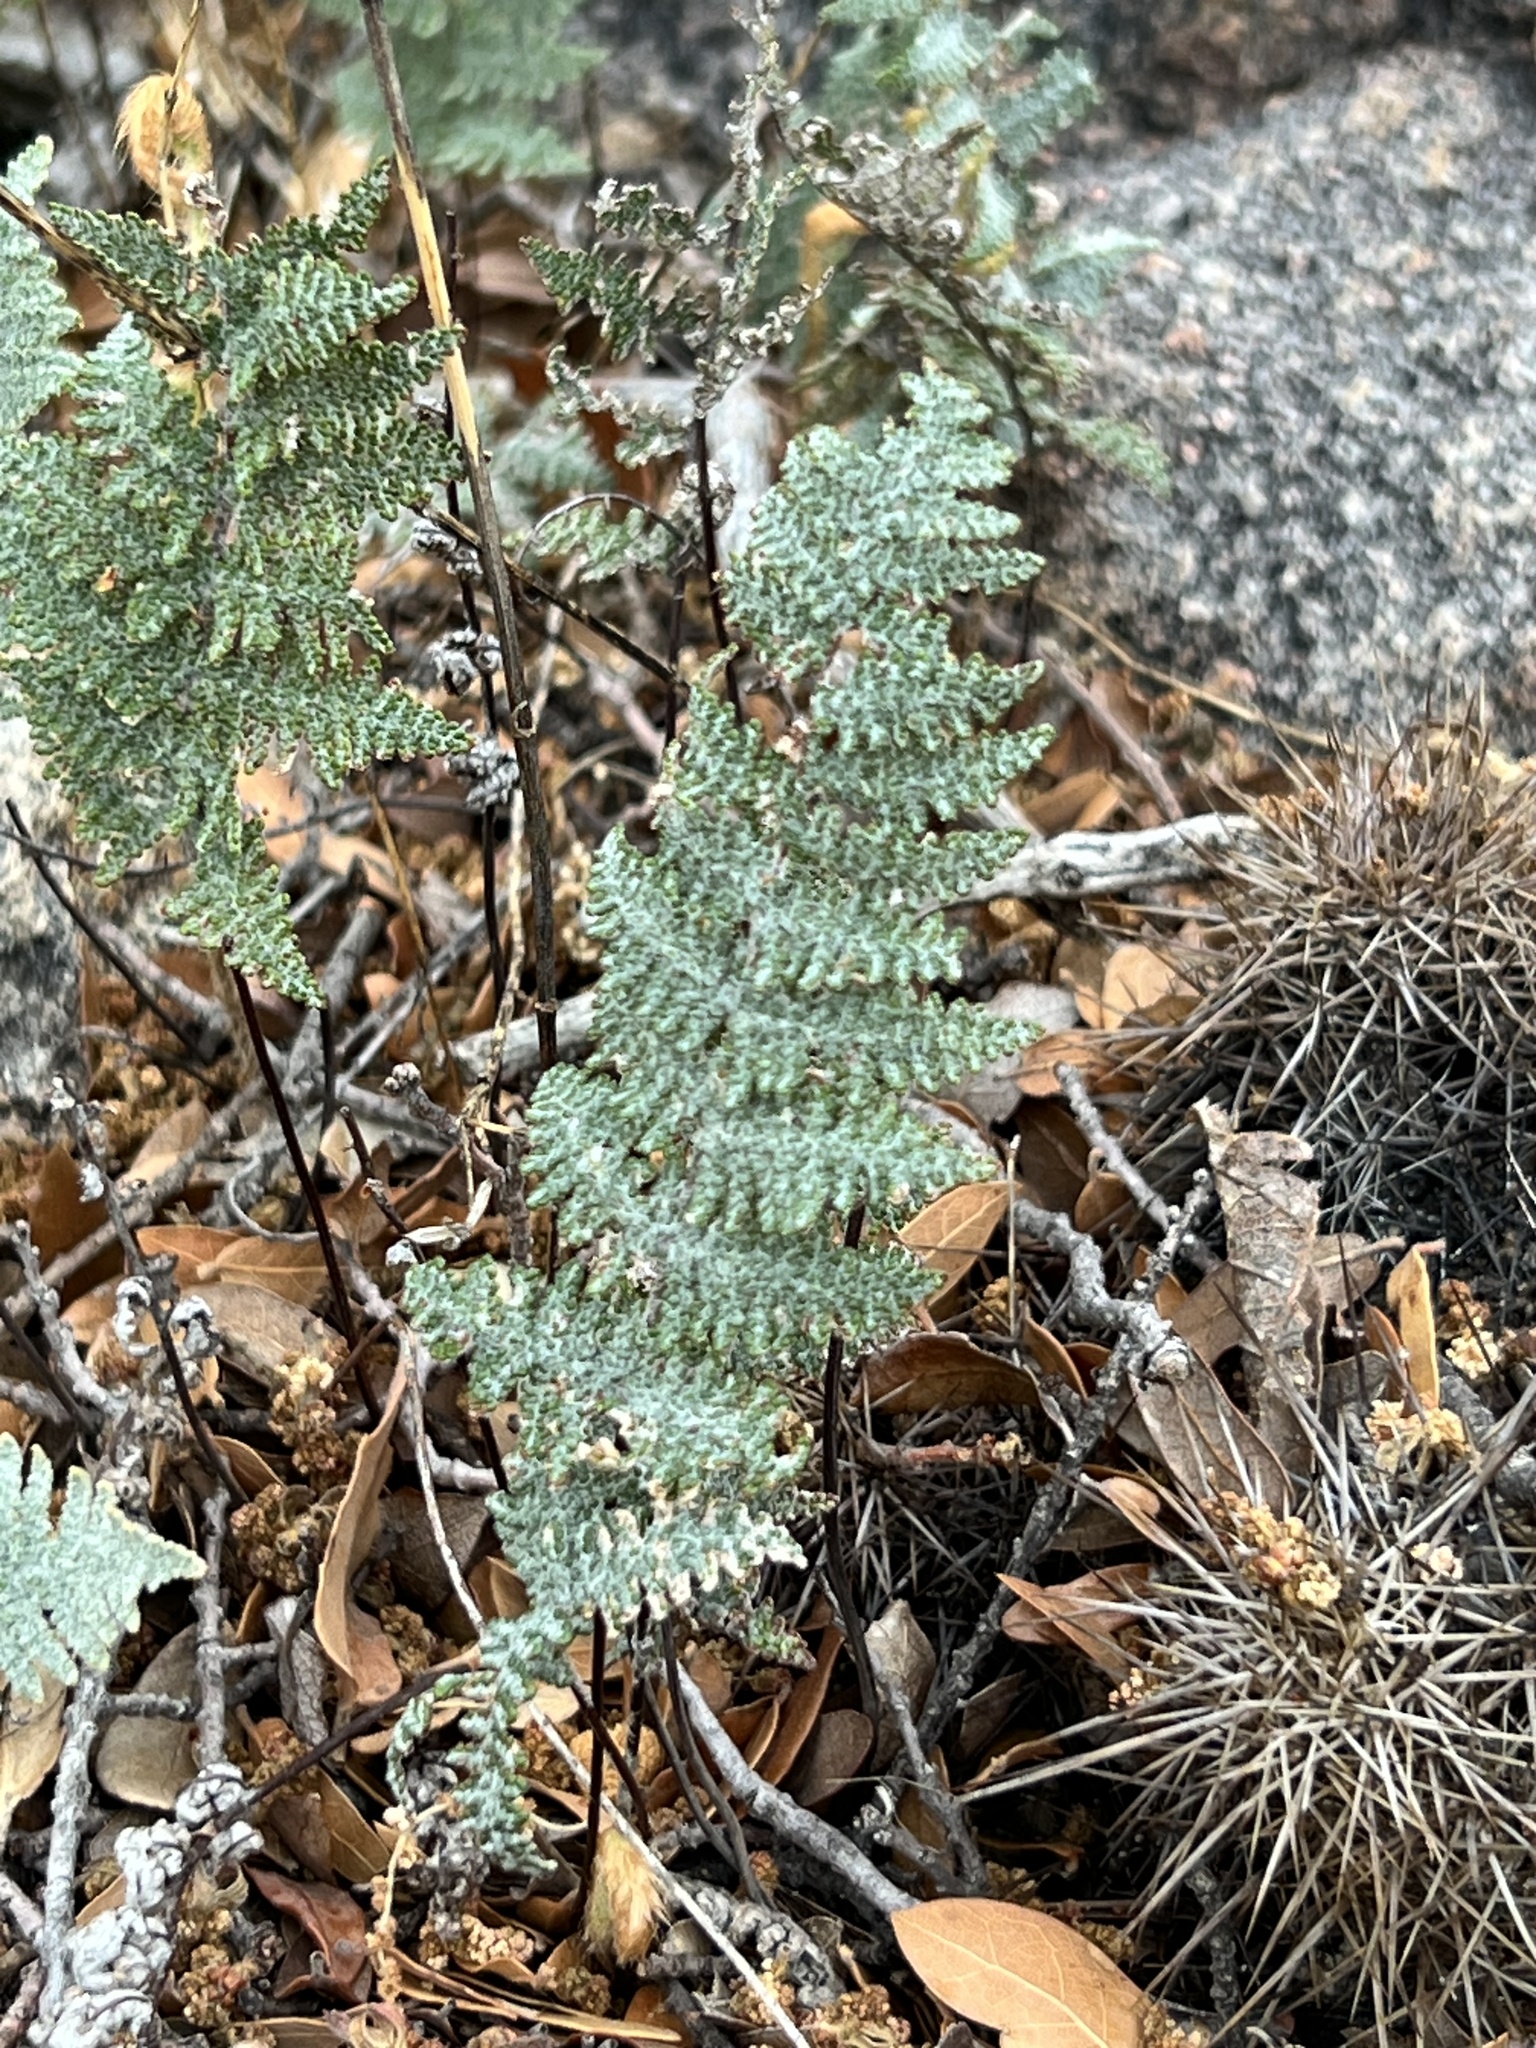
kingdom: Plantae
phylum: Tracheophyta
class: Polypodiopsida
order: Polypodiales
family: Pteridaceae
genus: Myriopteris
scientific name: Myriopteris lindheimeri
